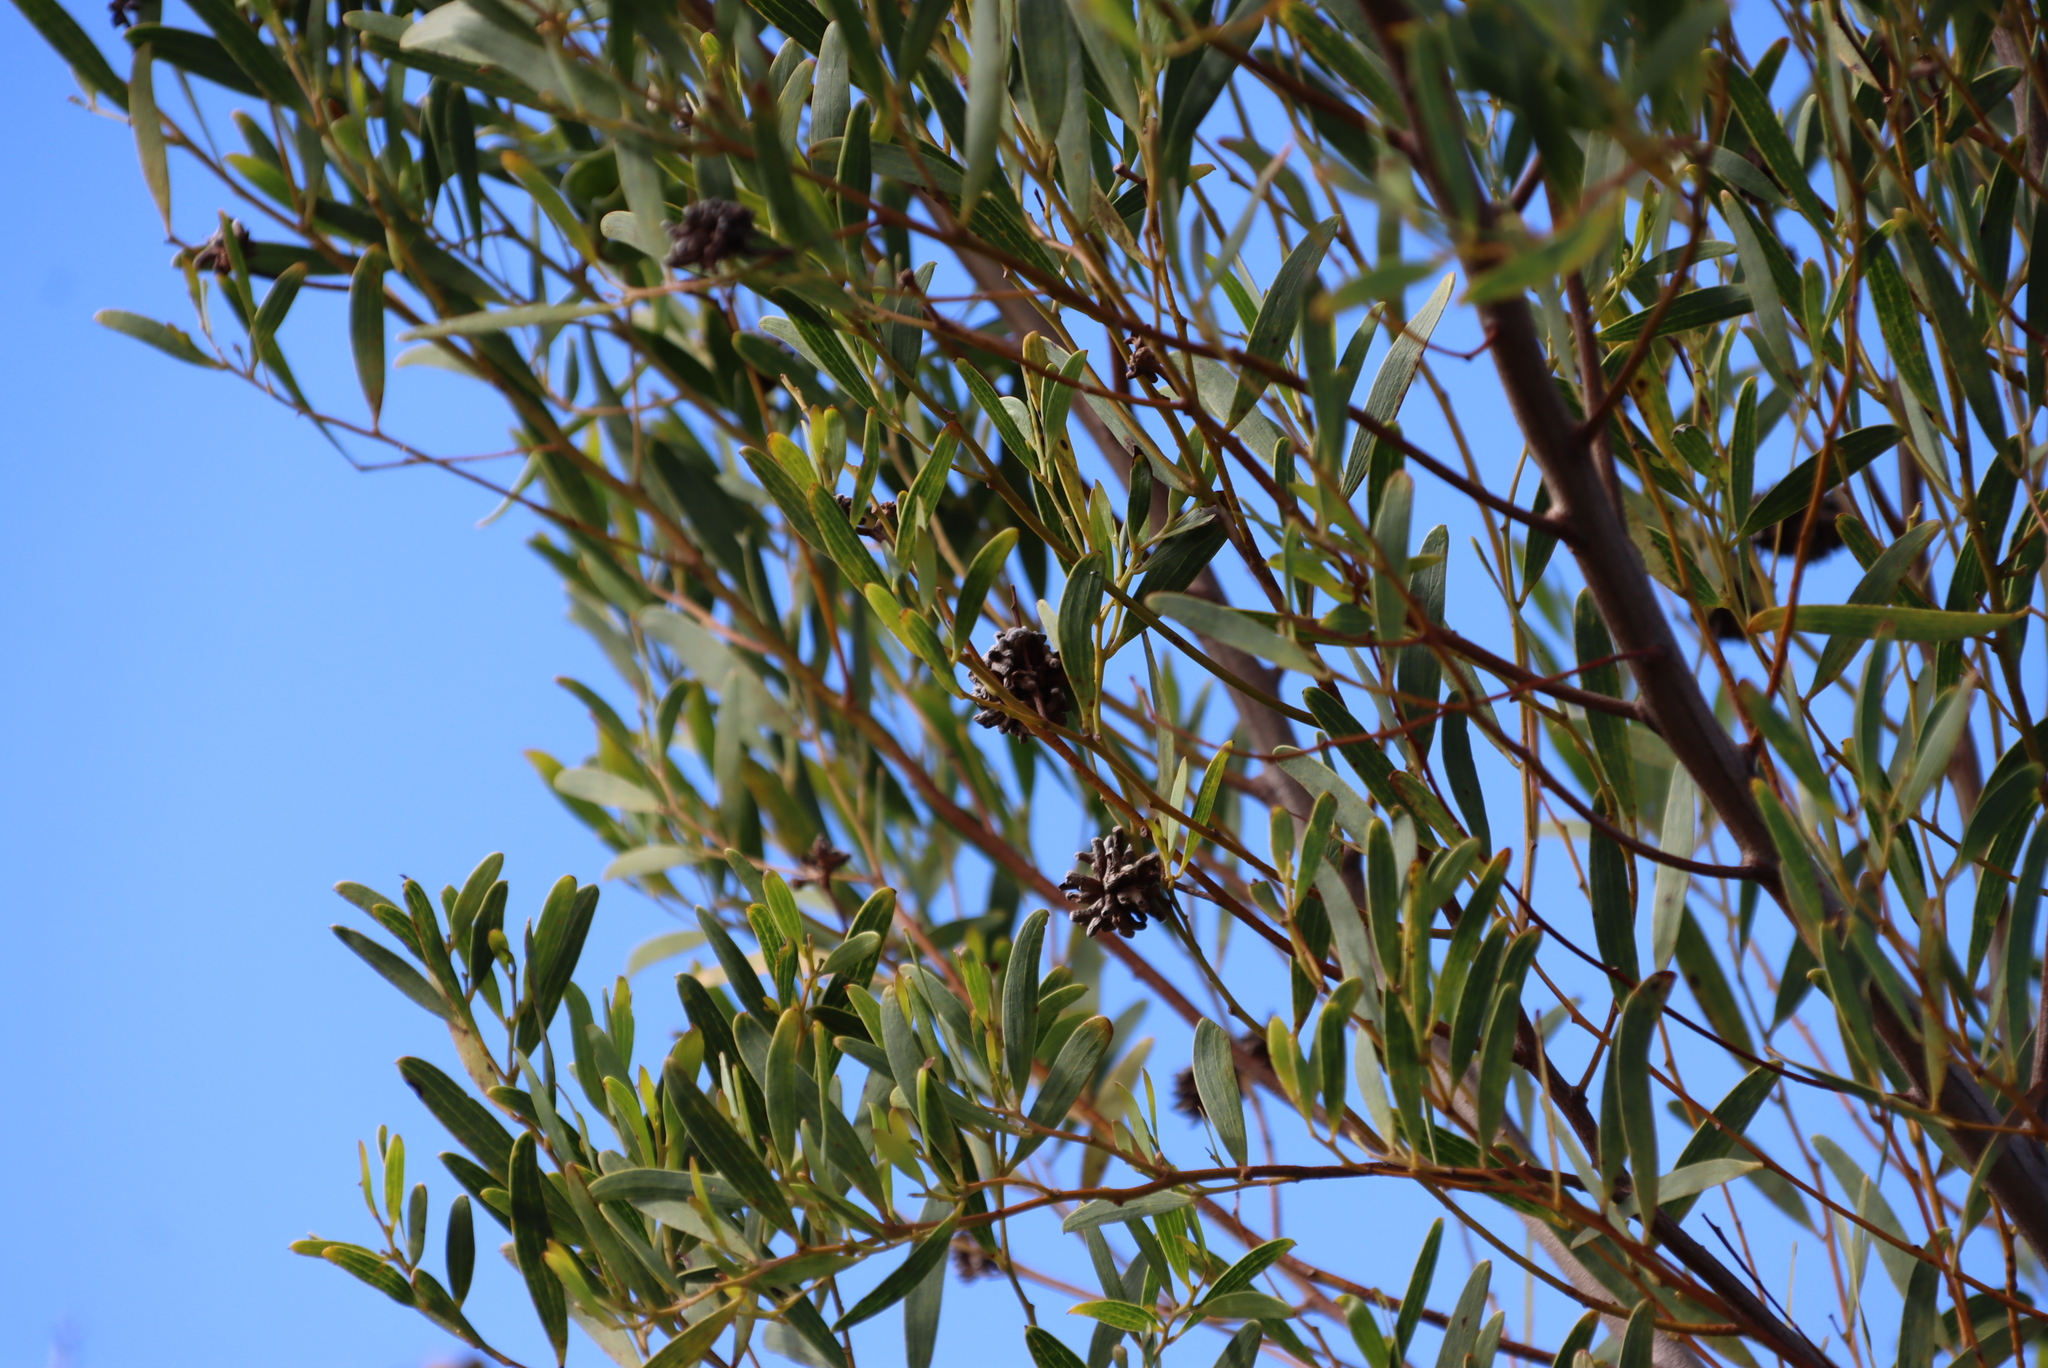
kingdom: Animalia
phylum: Arthropoda
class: Insecta
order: Diptera
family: Cecidomyiidae
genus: Dasineura
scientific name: Dasineura dielsi
